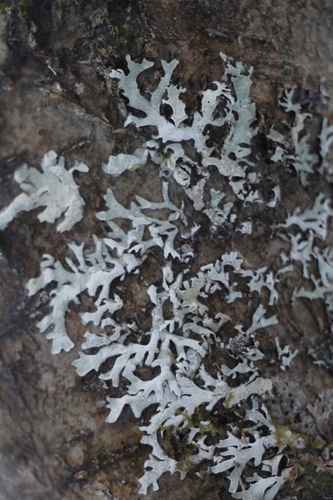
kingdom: Fungi
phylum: Ascomycota
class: Lecanoromycetes
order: Lecanorales
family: Parmeliaceae
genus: Parmelia
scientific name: Parmelia
